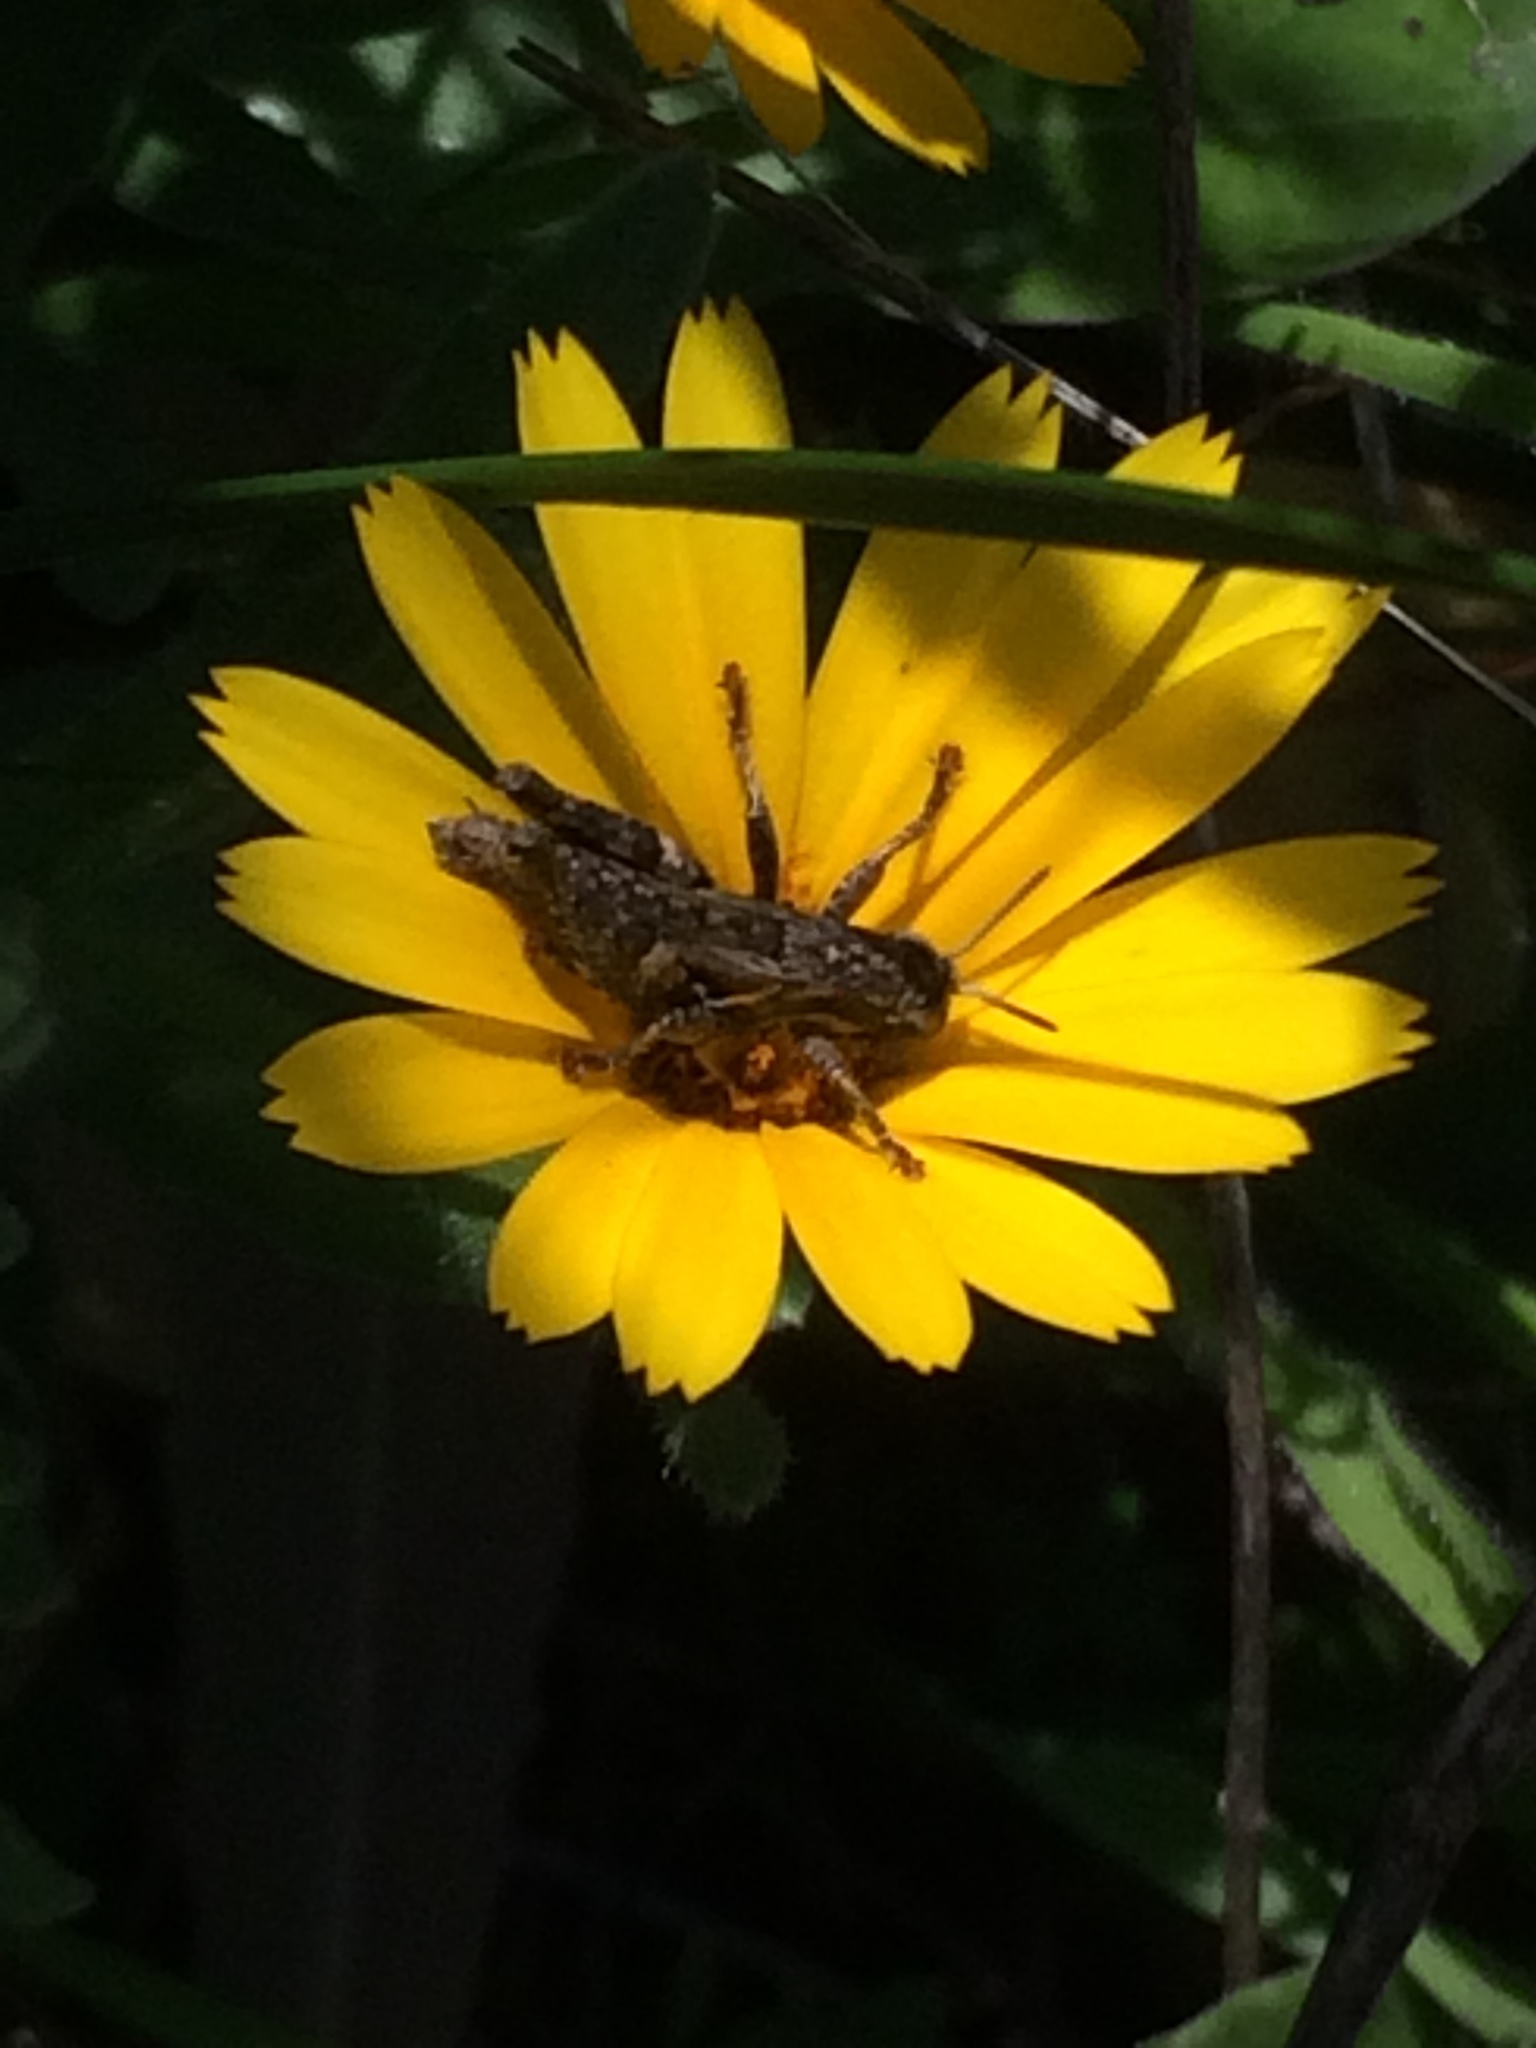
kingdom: Animalia
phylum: Arthropoda
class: Insecta
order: Orthoptera
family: Acrididae
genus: Pezotettix
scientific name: Pezotettix giornae
